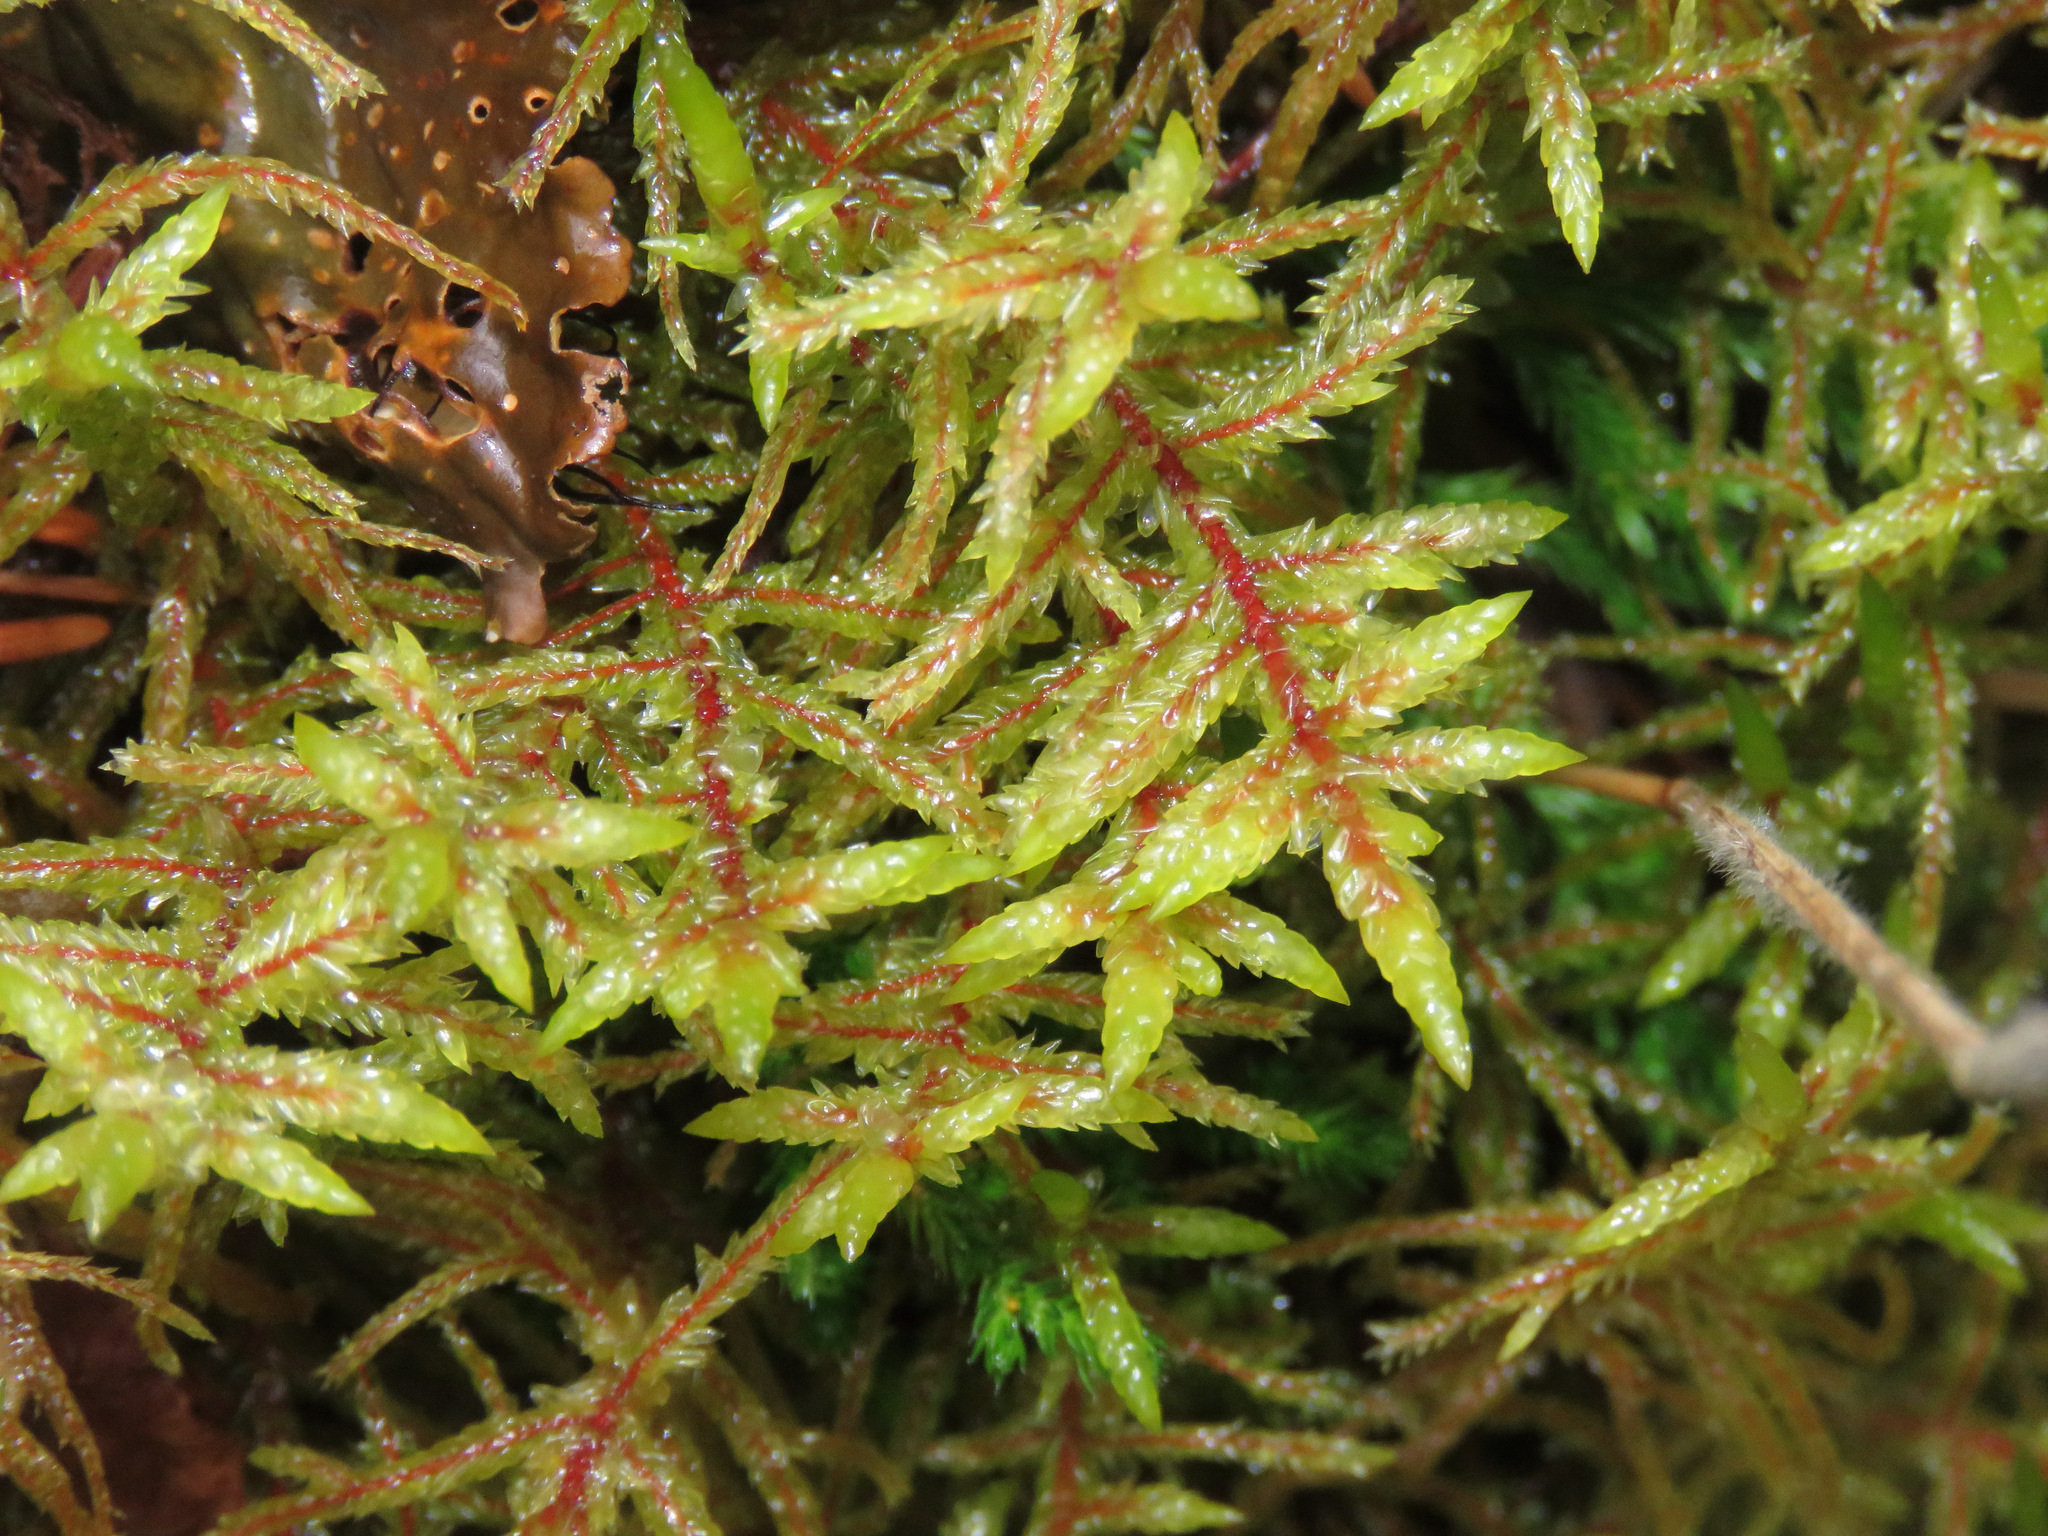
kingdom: Plantae
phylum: Bryophyta
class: Bryopsida
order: Hypnales
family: Hylocomiaceae
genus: Pleurozium
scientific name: Pleurozium schreberi
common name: Red-stemmed feather moss
